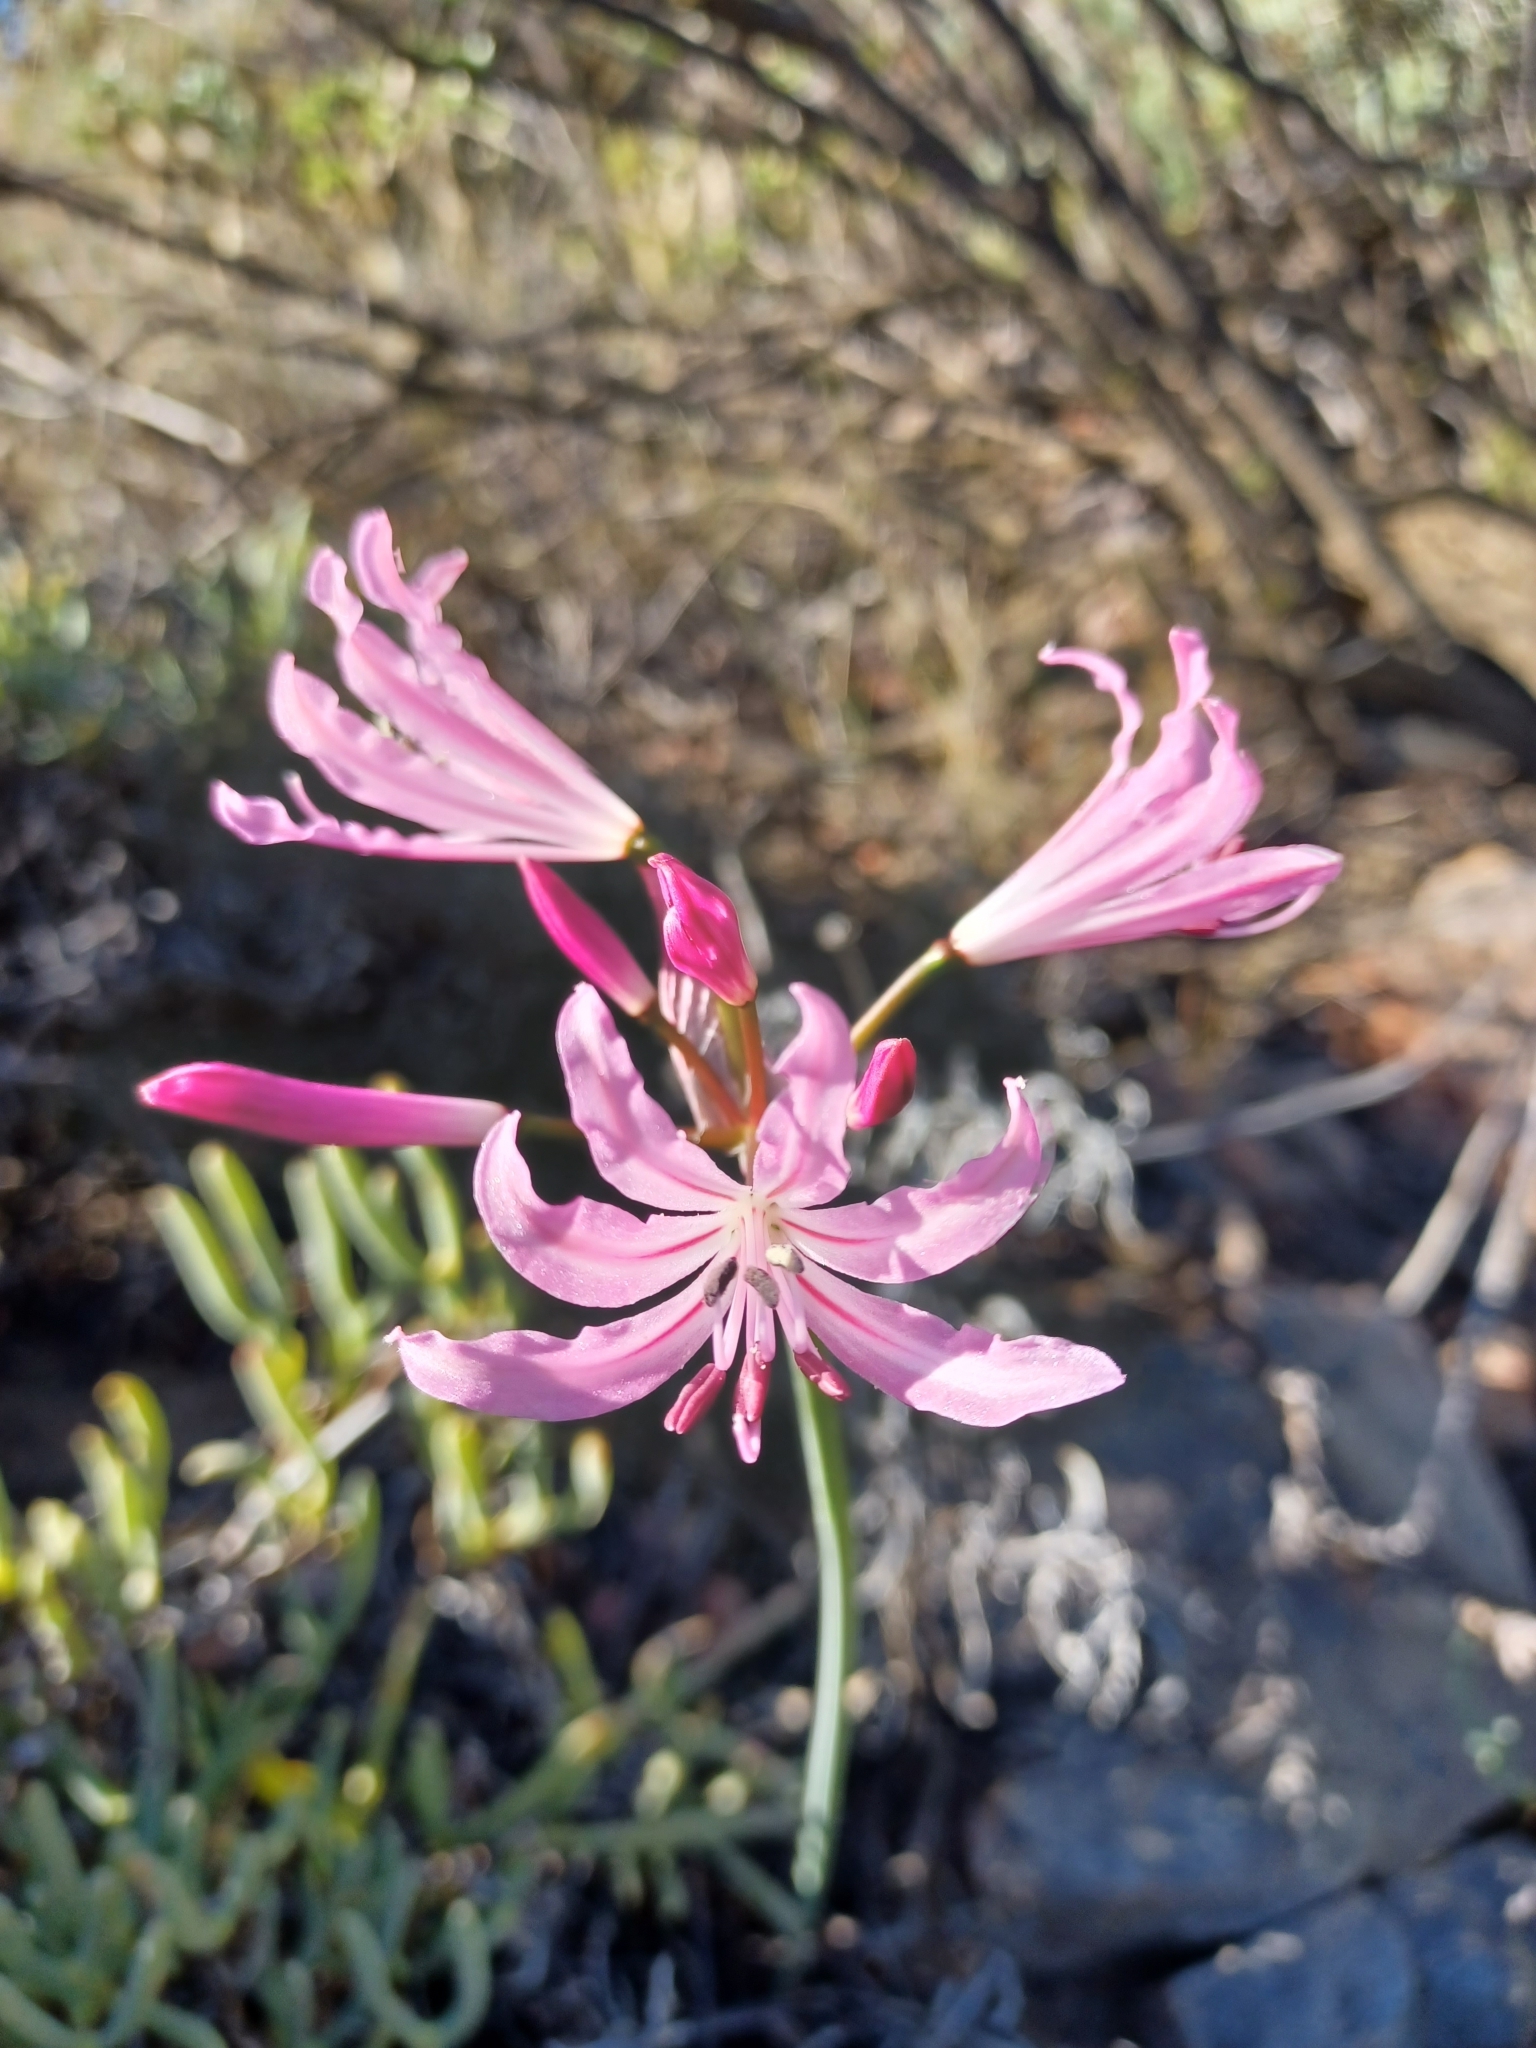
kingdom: Plantae
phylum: Tracheophyta
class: Liliopsida
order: Asparagales
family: Amaryllidaceae
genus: Nerine
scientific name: Nerine humilis
